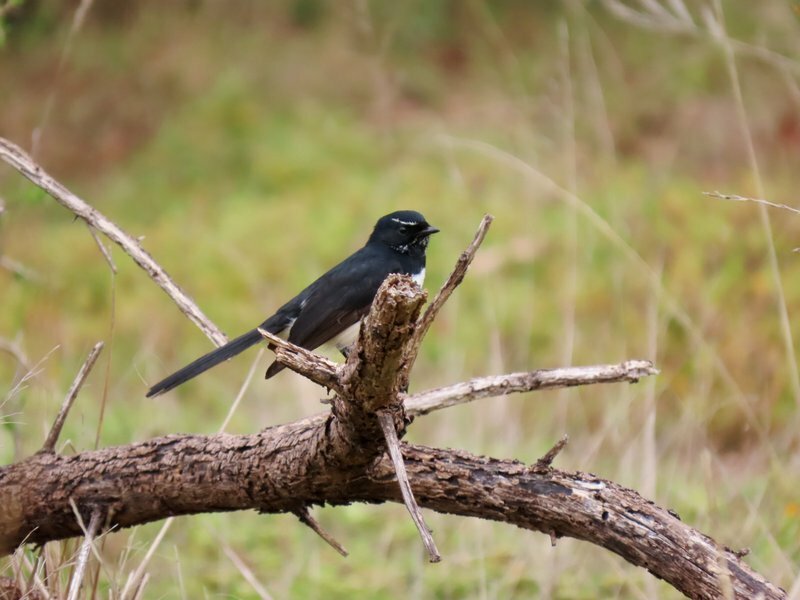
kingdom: Animalia
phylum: Chordata
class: Aves
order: Passeriformes
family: Rhipiduridae
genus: Rhipidura
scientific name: Rhipidura leucophrys
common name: Willie wagtail
